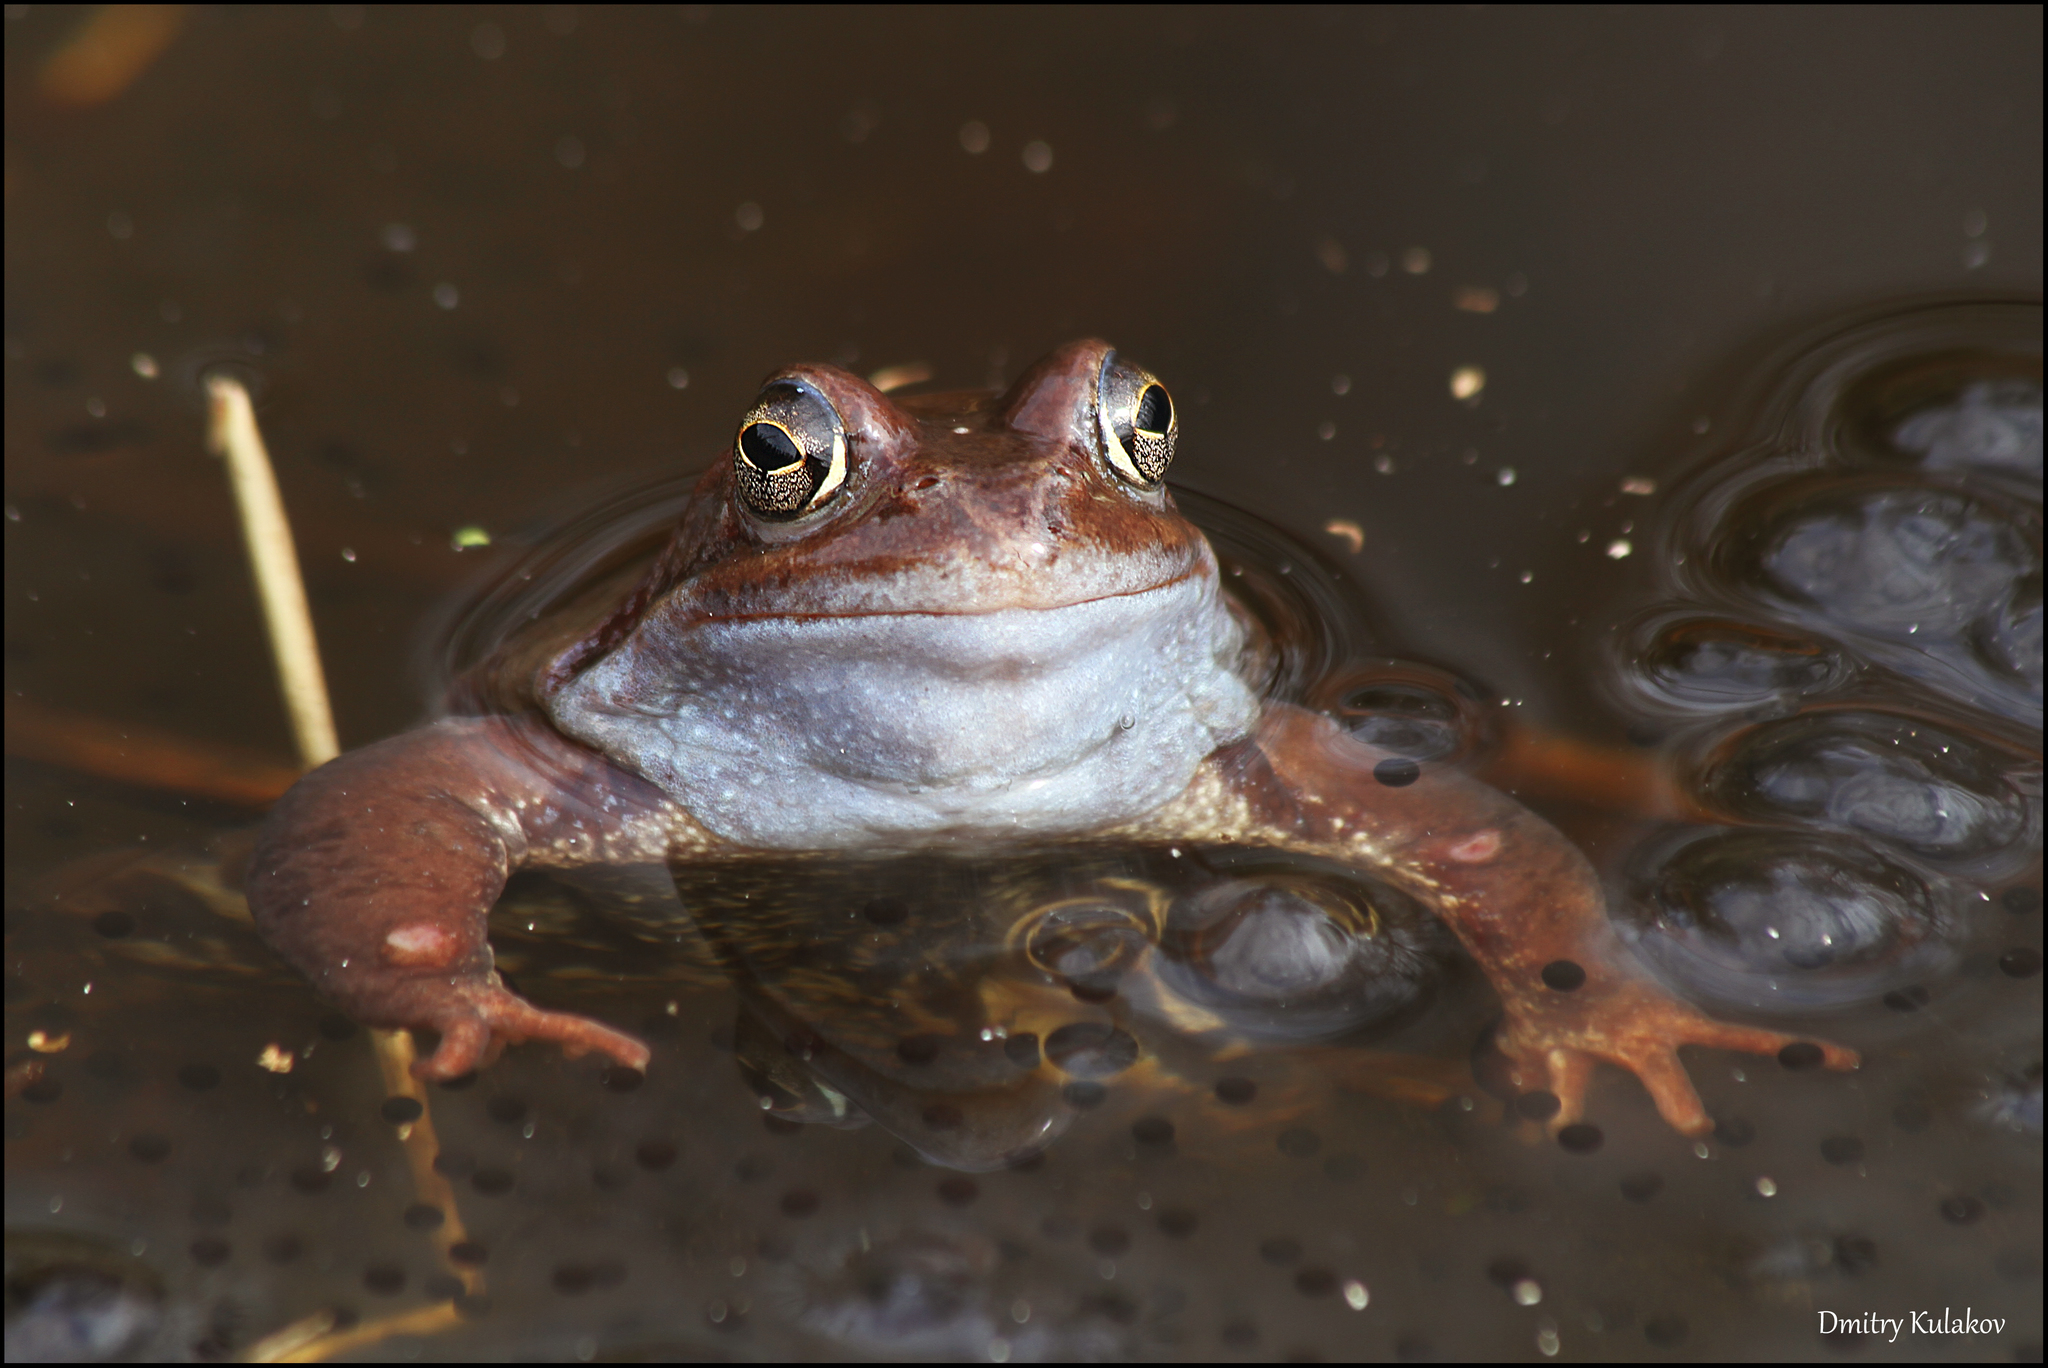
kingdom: Animalia
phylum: Chordata
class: Amphibia
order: Anura
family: Ranidae
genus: Rana
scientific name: Rana temporaria
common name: Common frog
